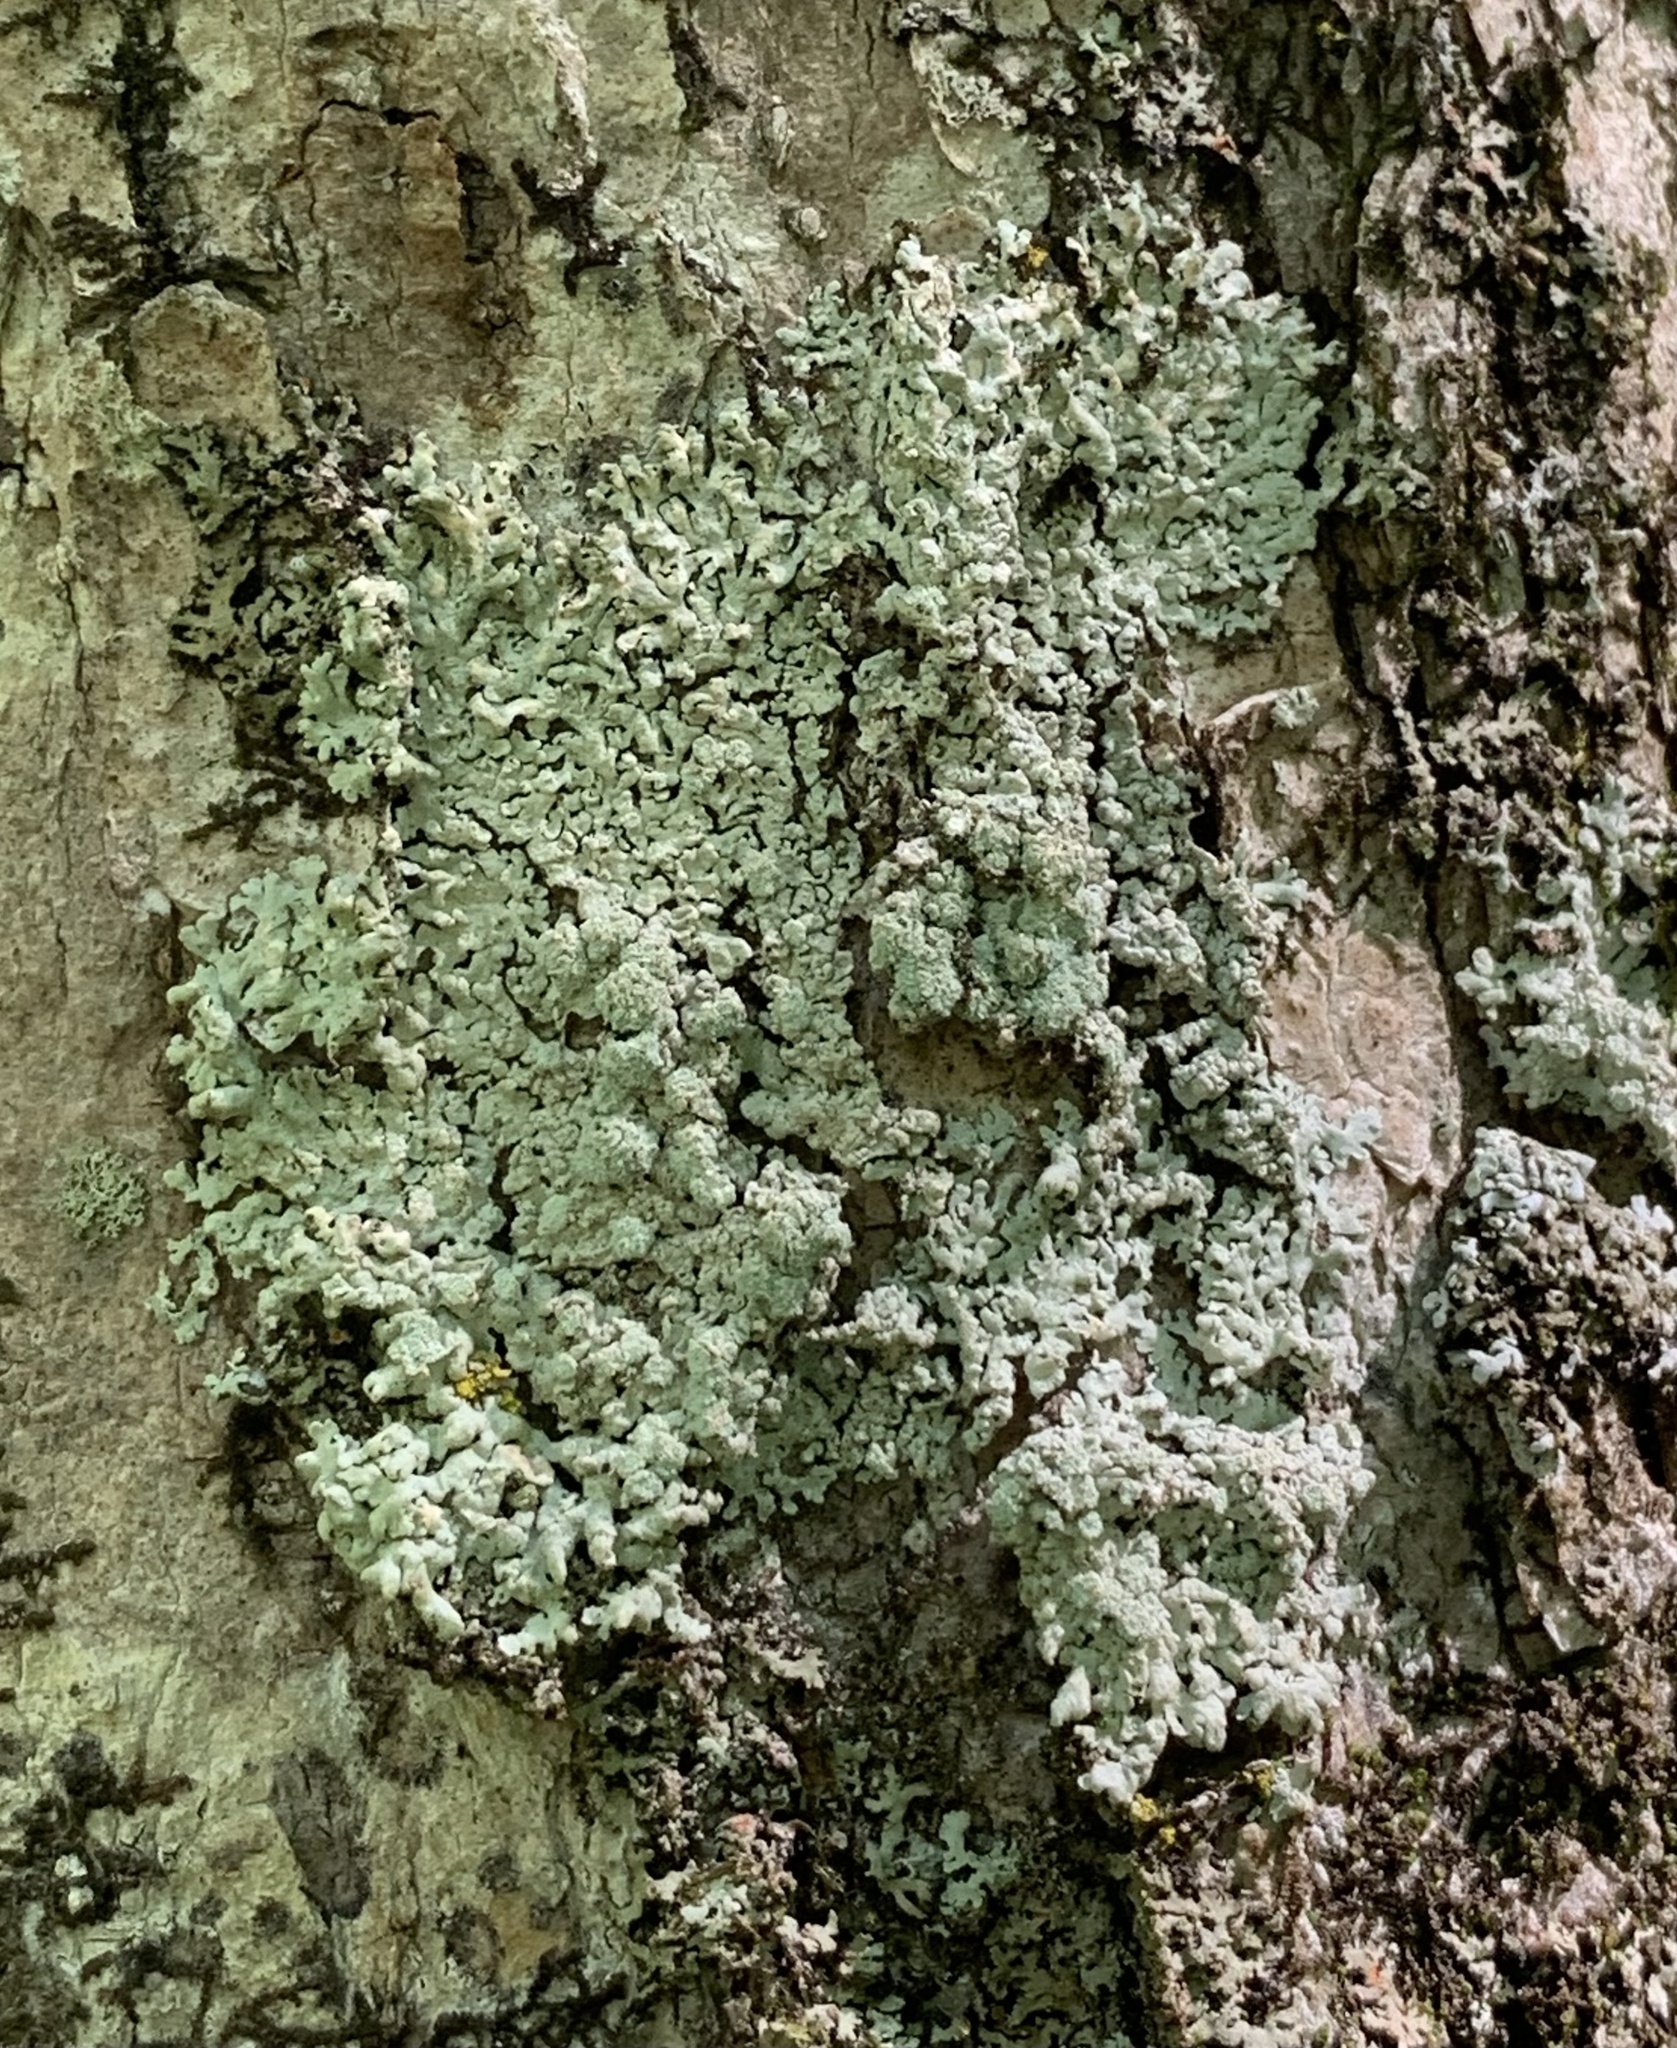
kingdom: Fungi
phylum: Ascomycota
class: Lecanoromycetes
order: Caliciales
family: Physciaceae
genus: Physcia
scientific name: Physcia americana
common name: American rosette lichen
